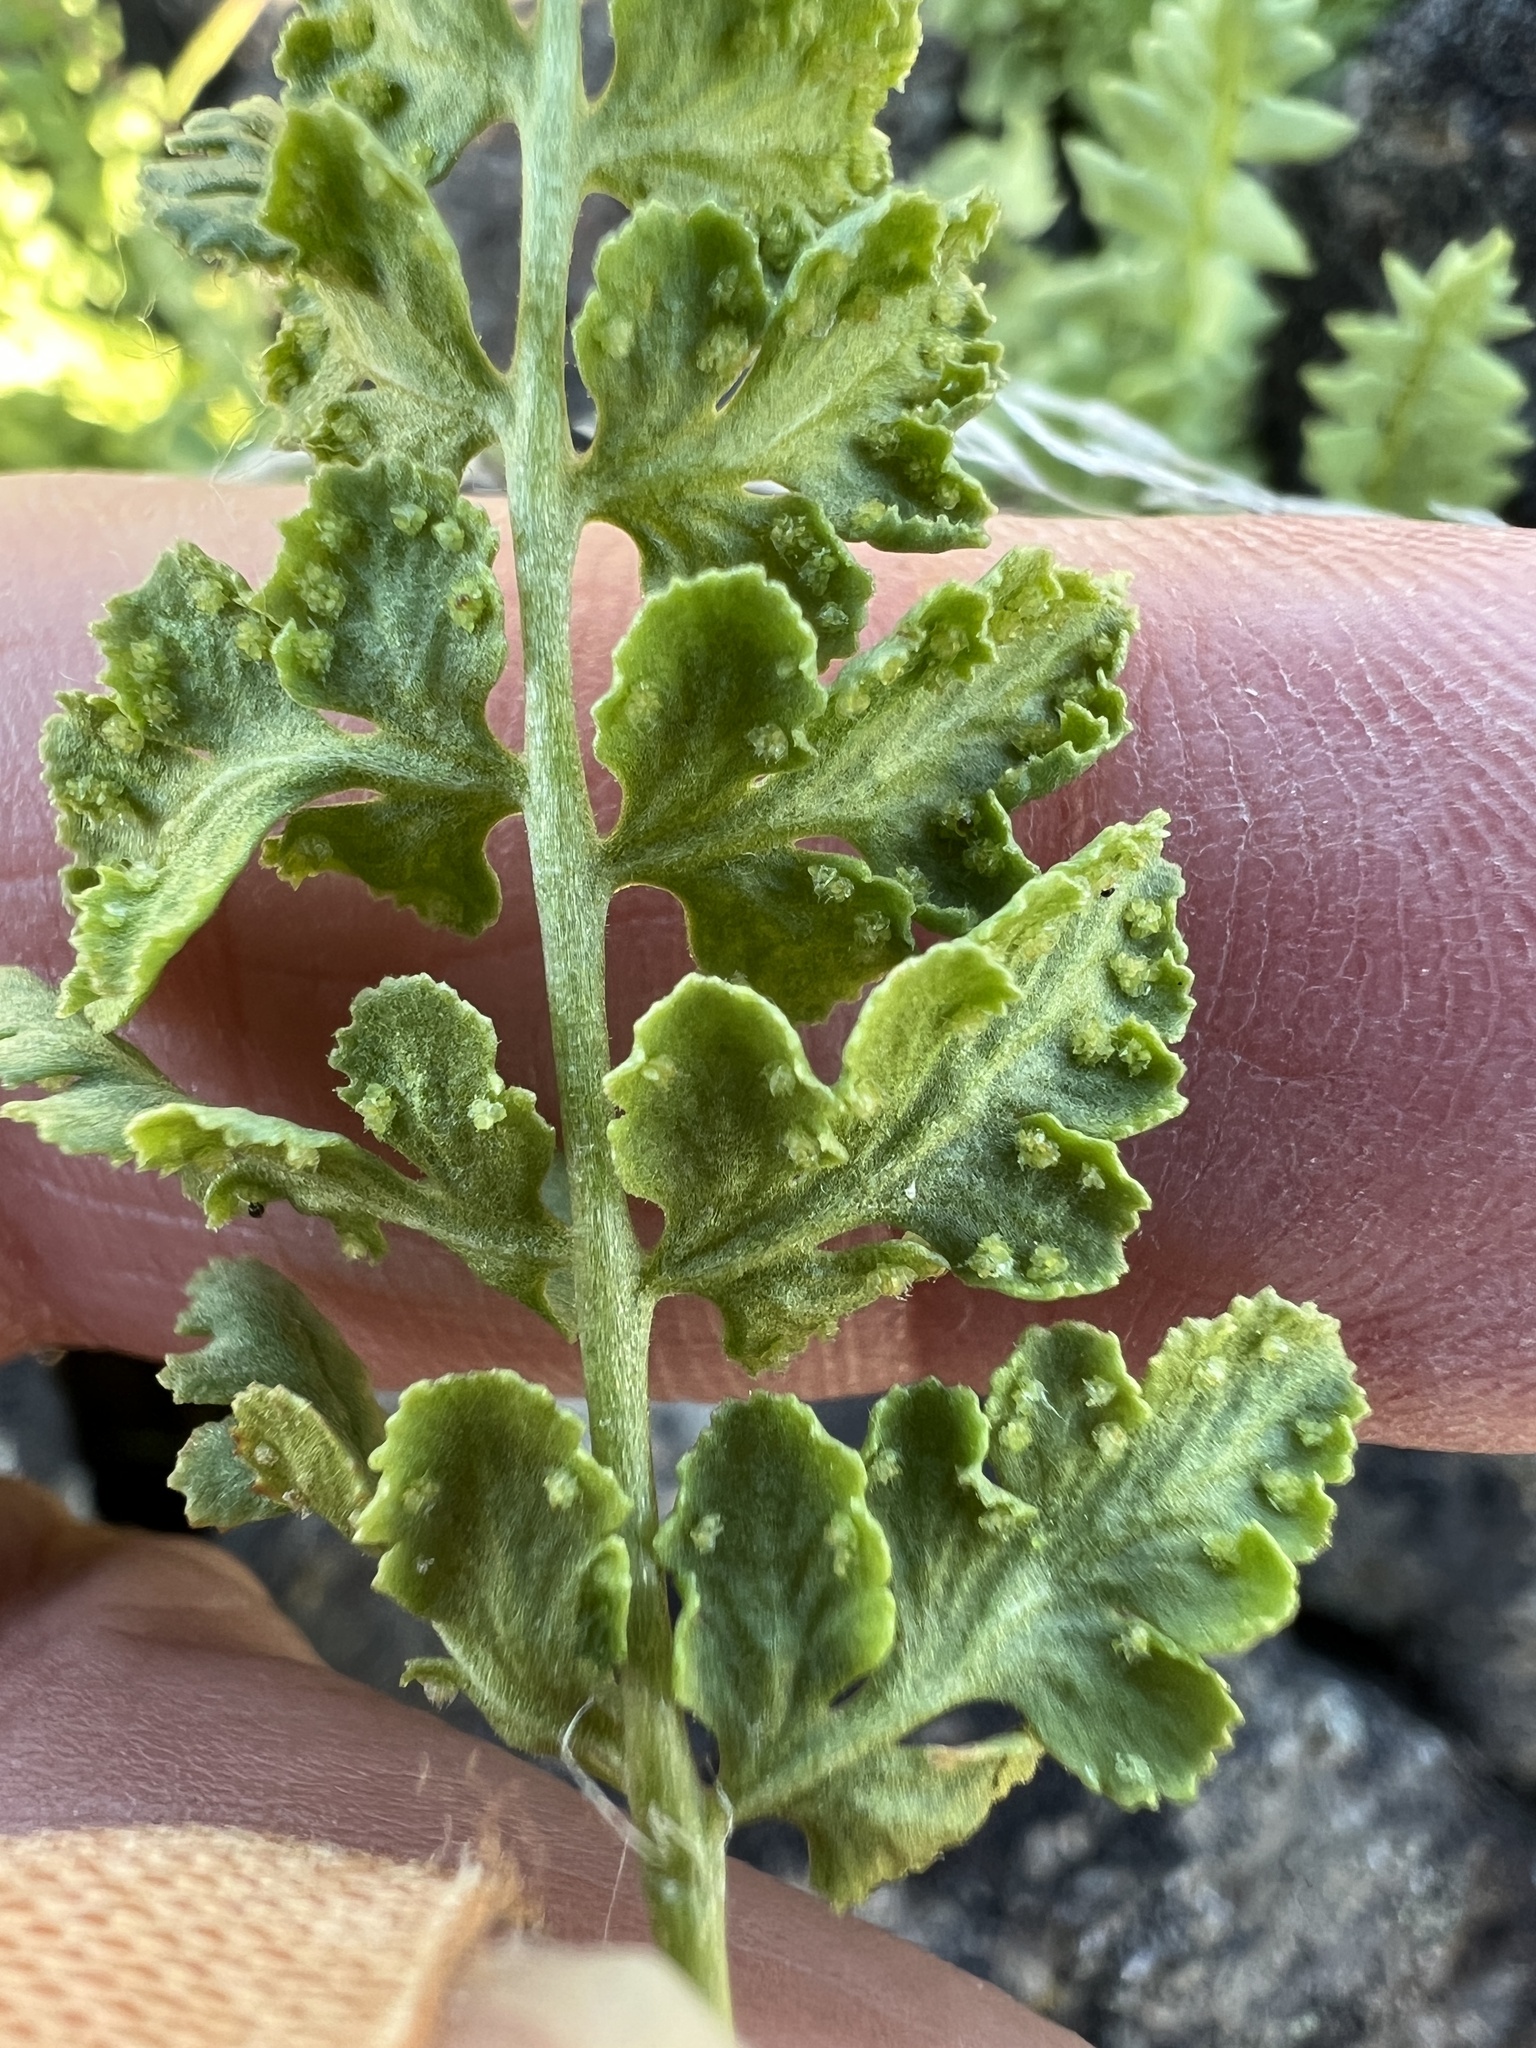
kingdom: Plantae
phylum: Tracheophyta
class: Polypodiopsida
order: Polypodiales
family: Woodsiaceae
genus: Physematium
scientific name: Physematium oreganum
